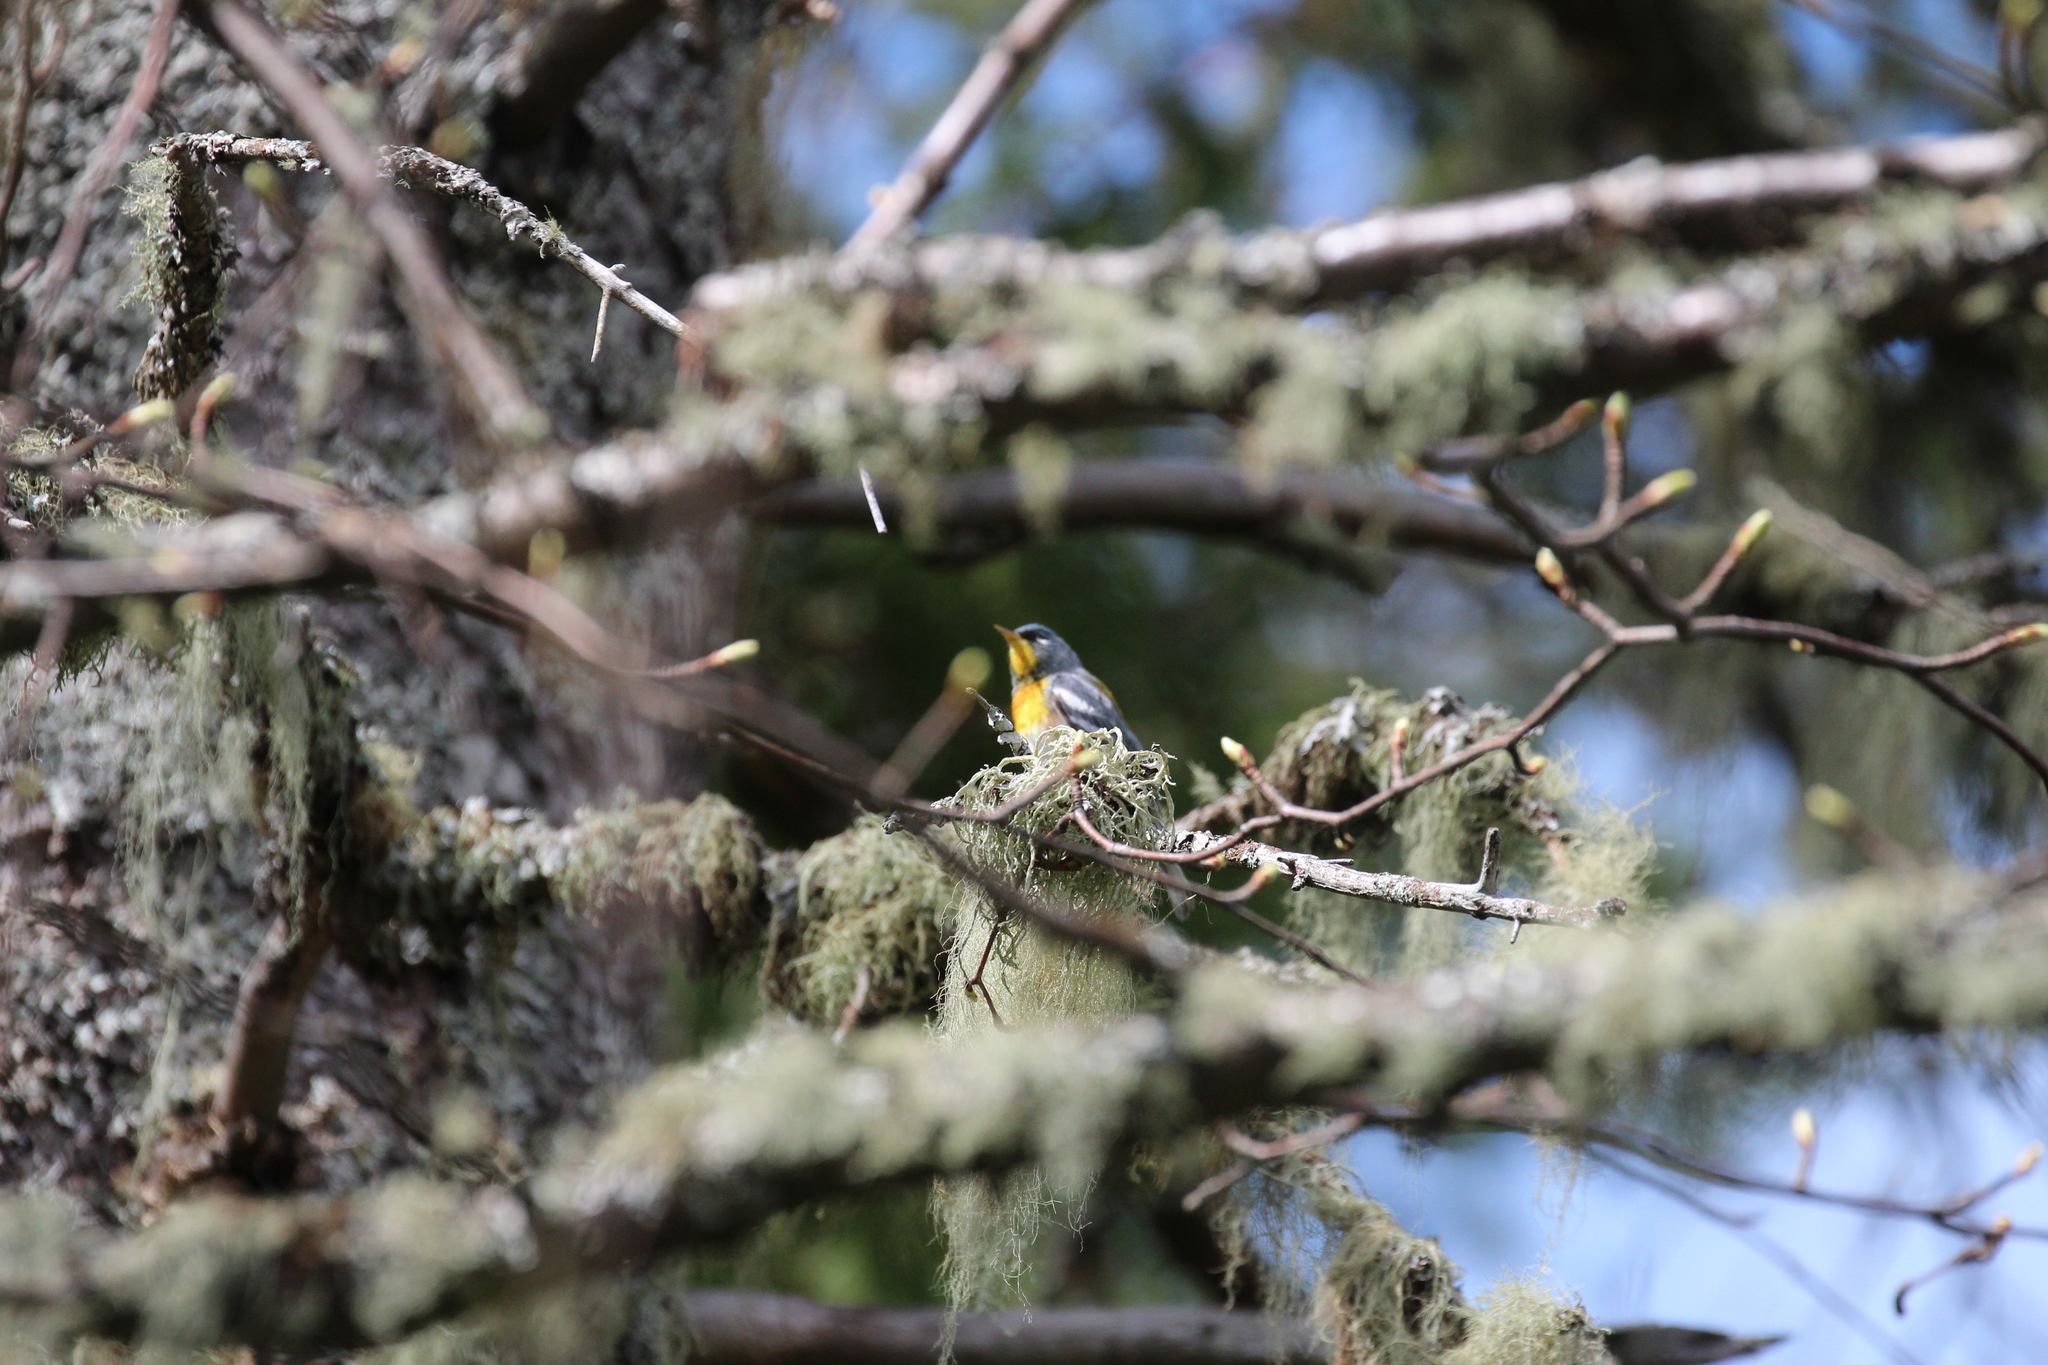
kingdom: Animalia
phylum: Chordata
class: Aves
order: Passeriformes
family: Parulidae
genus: Setophaga
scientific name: Setophaga americana
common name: Northern parula
